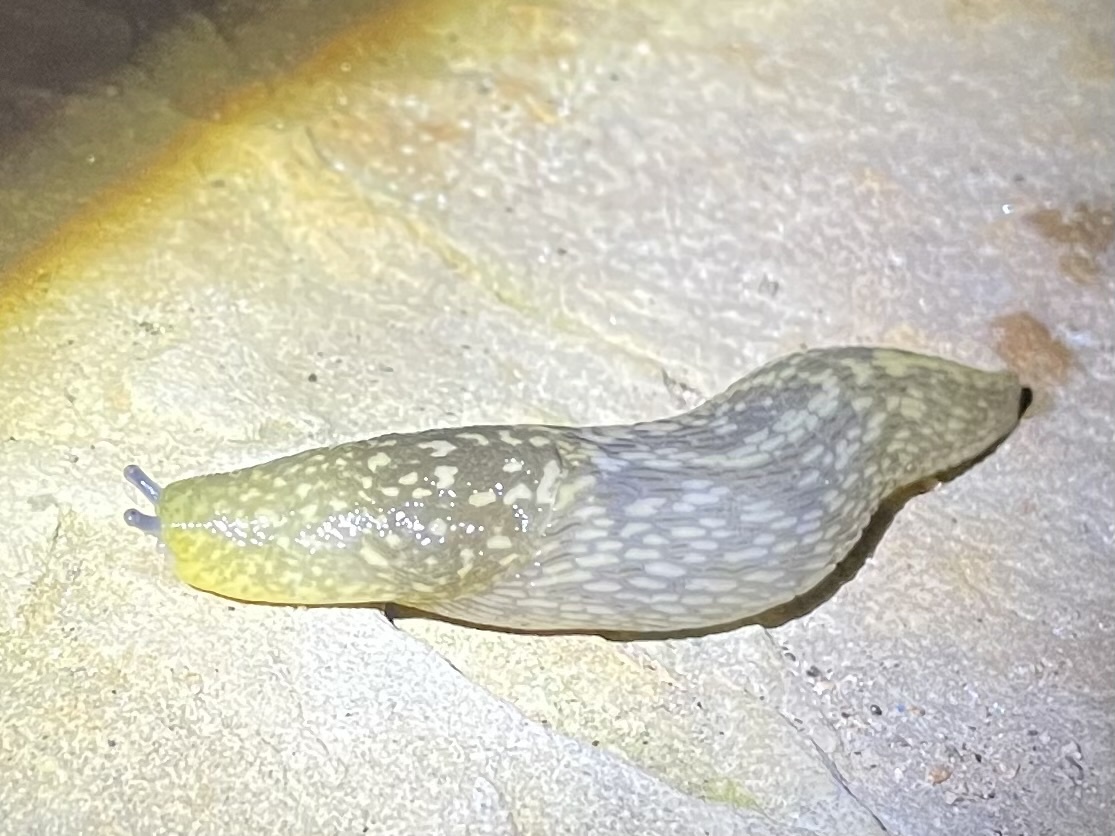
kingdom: Animalia
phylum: Mollusca
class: Gastropoda
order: Stylommatophora
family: Limacidae
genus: Limacus
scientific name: Limacus flavus
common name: Yellow gardenslug
